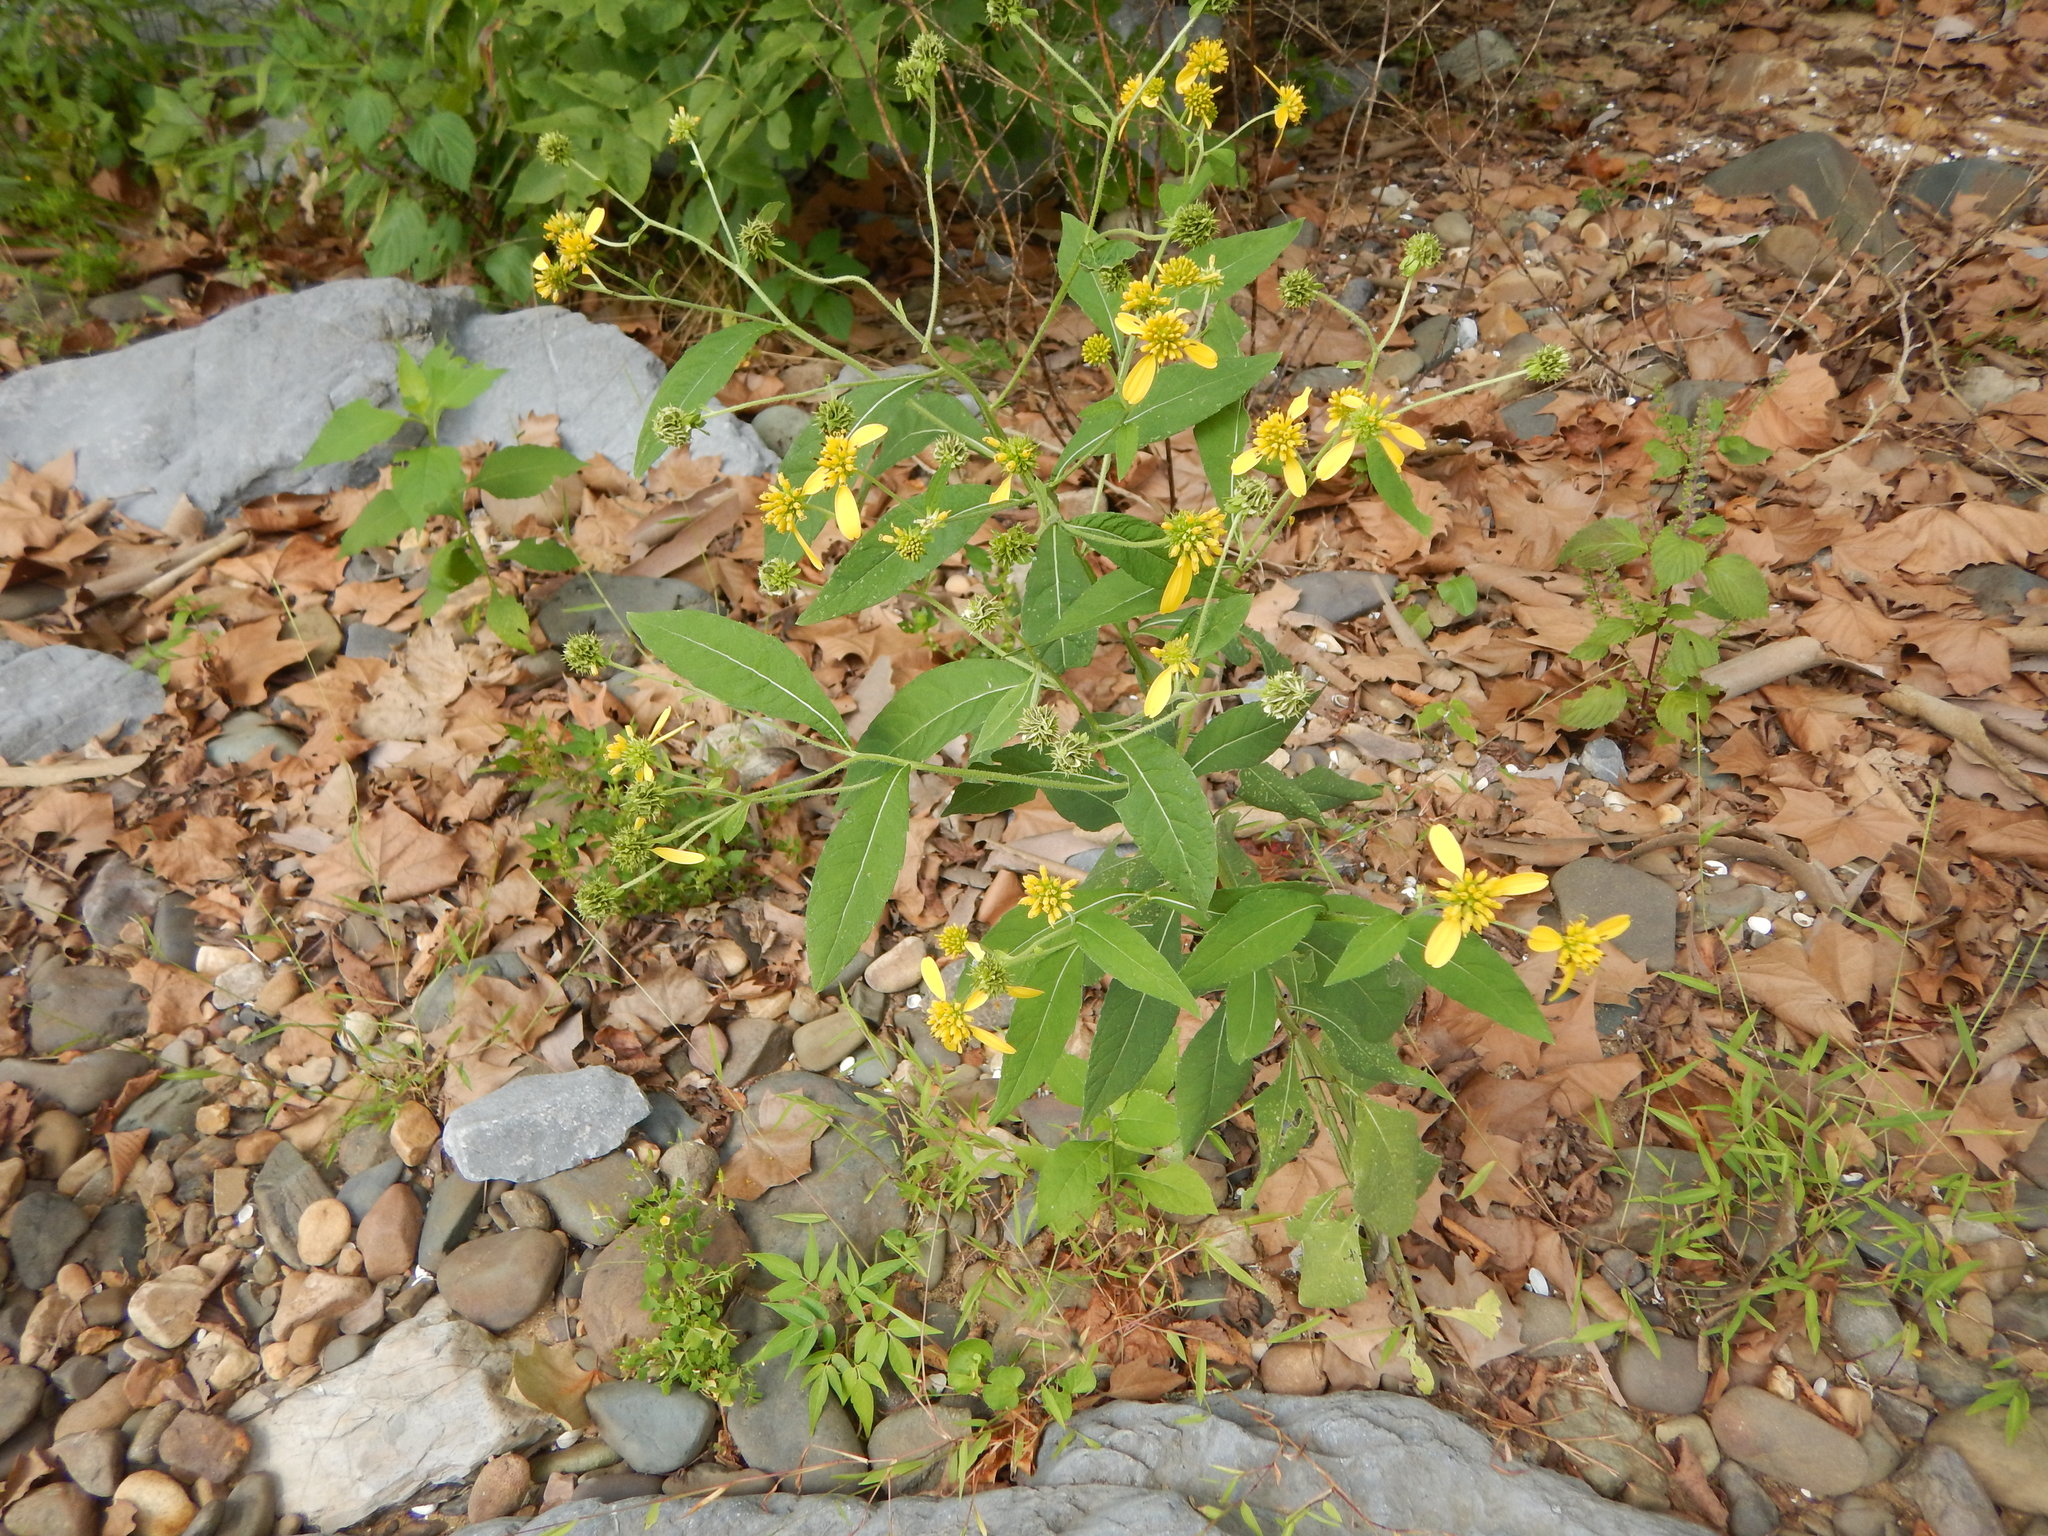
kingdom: Plantae
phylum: Tracheophyta
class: Magnoliopsida
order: Asterales
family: Asteraceae
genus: Verbesina
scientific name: Verbesina alternifolia
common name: Wingstem
